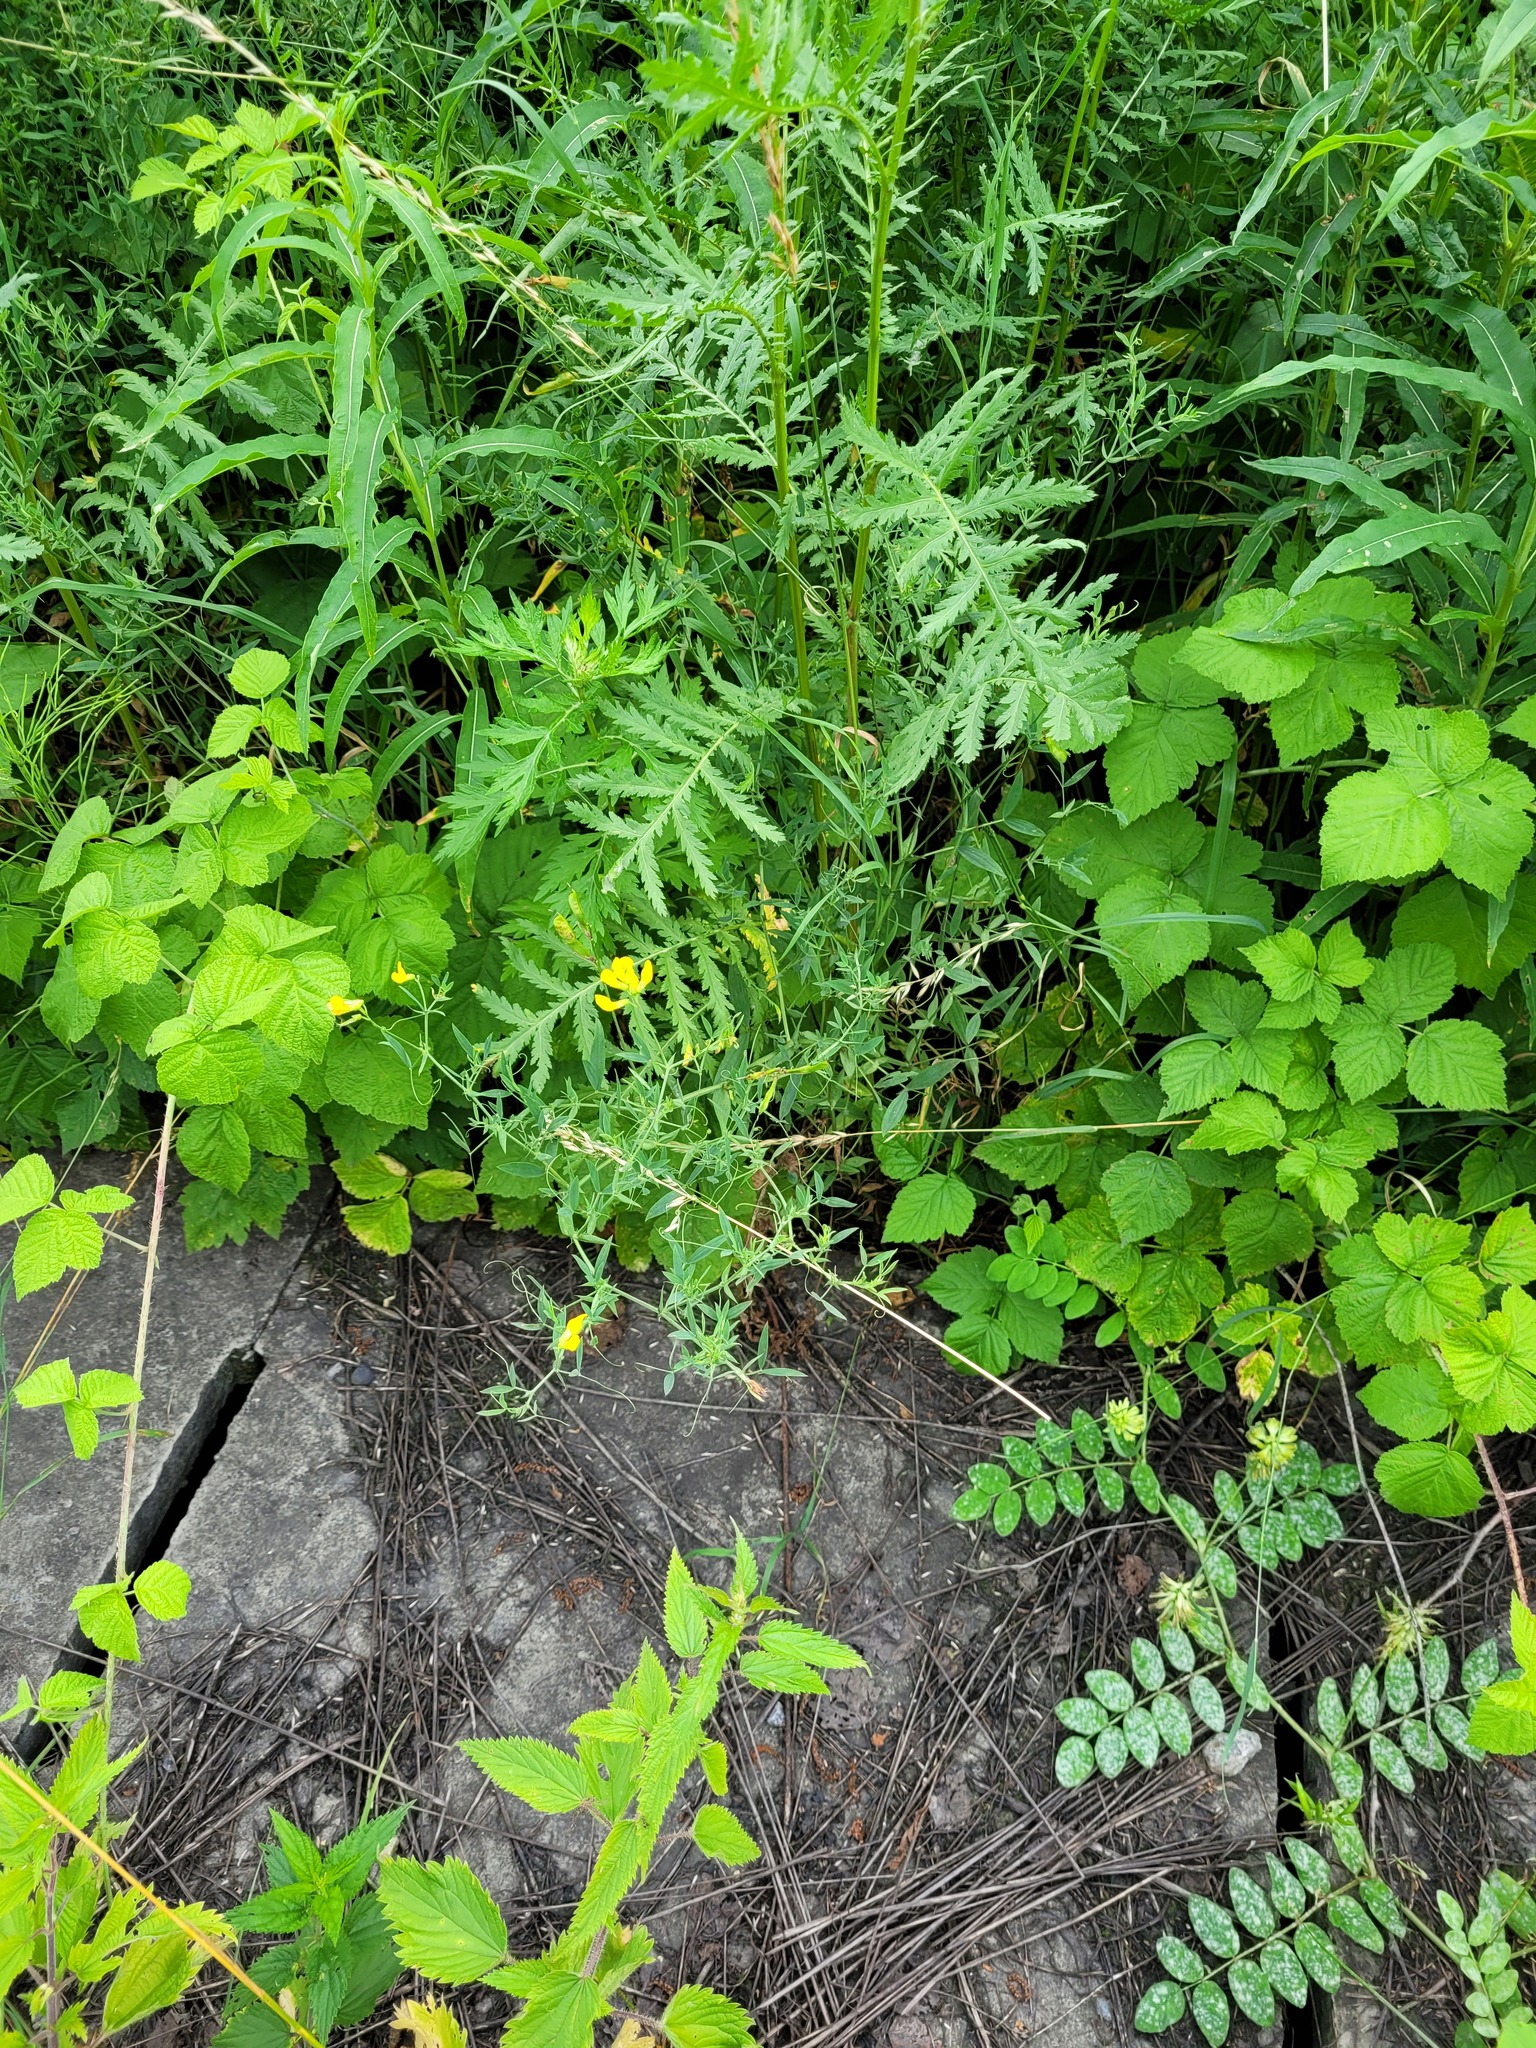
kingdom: Plantae
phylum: Tracheophyta
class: Magnoliopsida
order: Fabales
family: Fabaceae
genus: Lathyrus
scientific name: Lathyrus pratensis
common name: Meadow vetchling
